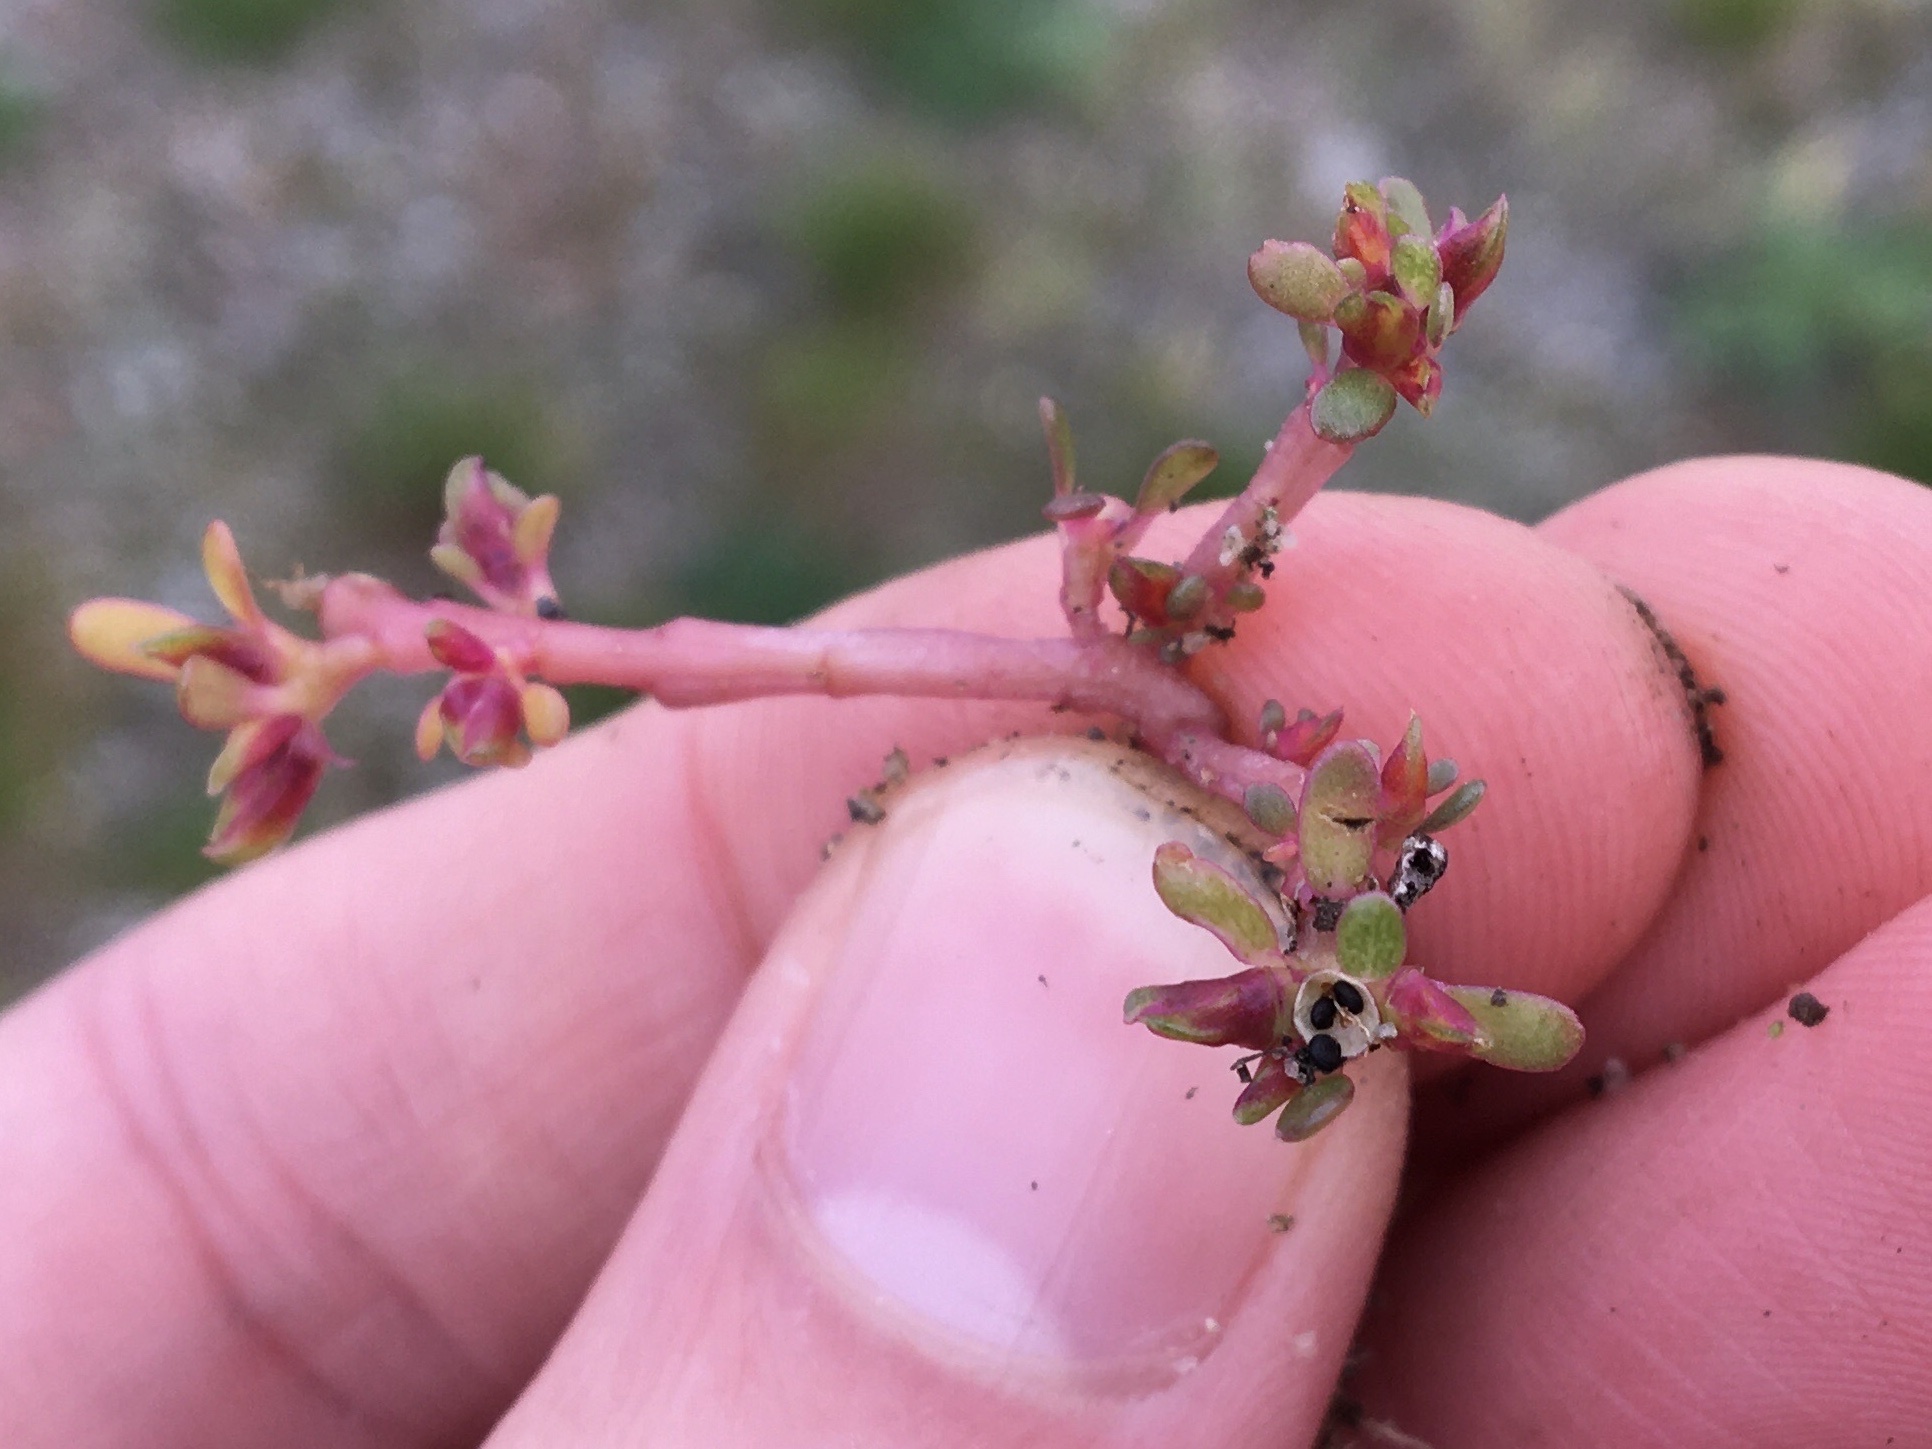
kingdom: Plantae
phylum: Tracheophyta
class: Magnoliopsida
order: Caryophyllales
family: Portulacaceae
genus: Portulaca
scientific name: Portulaca oleracea
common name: Common purslane
